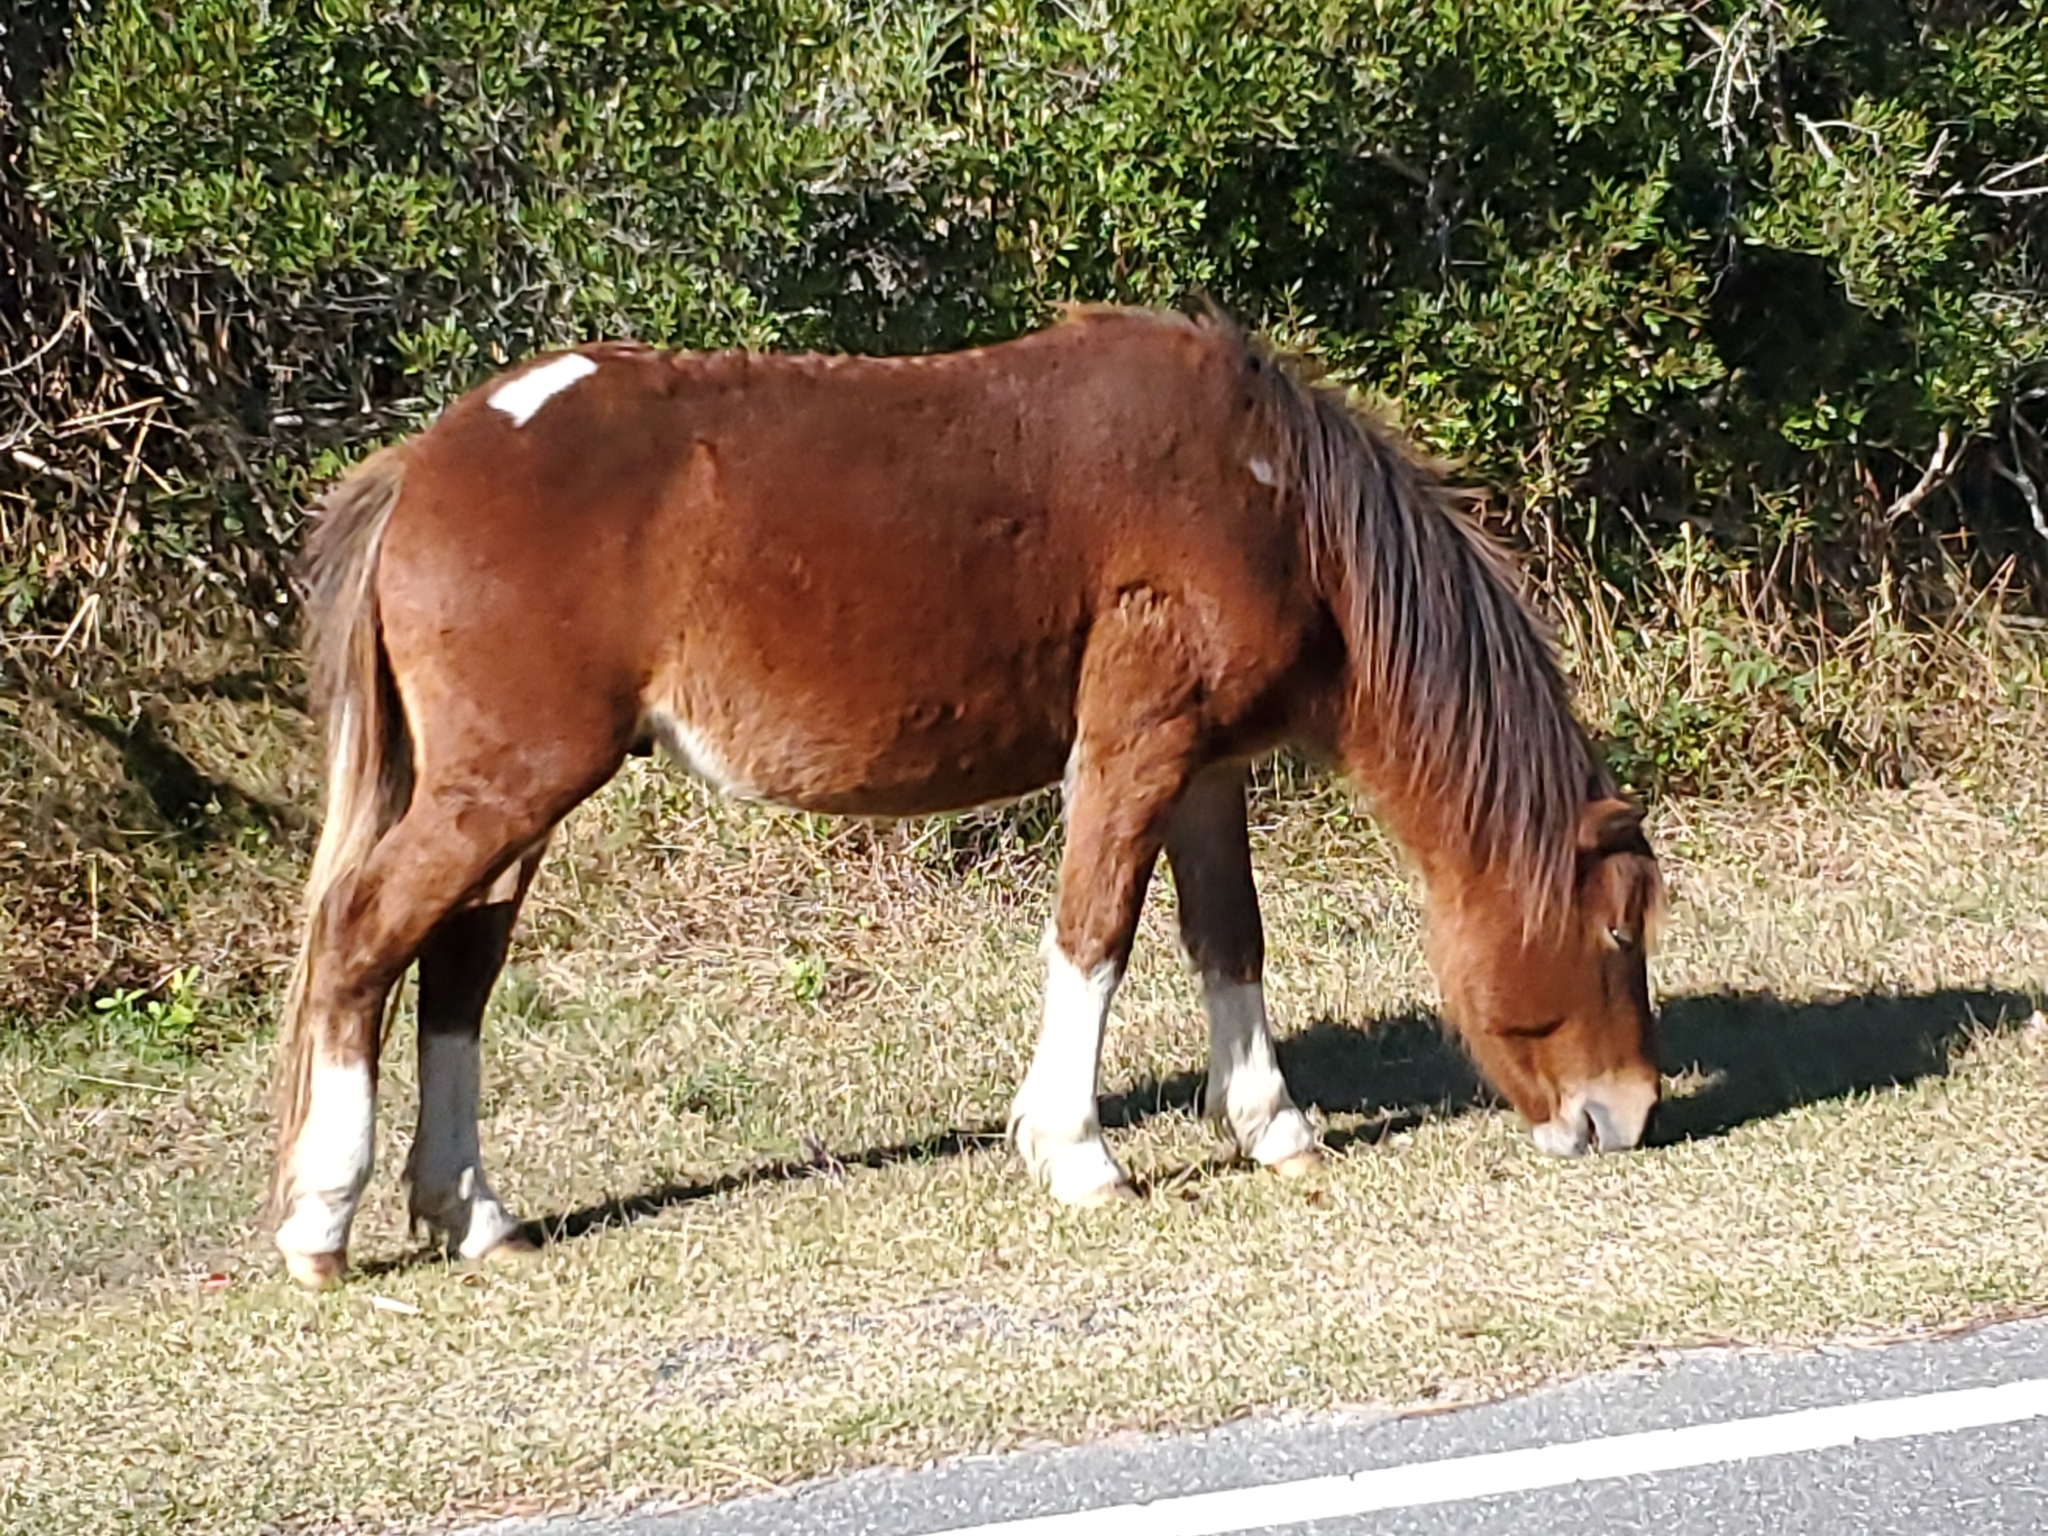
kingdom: Animalia
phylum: Chordata
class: Mammalia
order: Perissodactyla
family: Equidae
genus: Equus
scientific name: Equus caballus
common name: Horse
